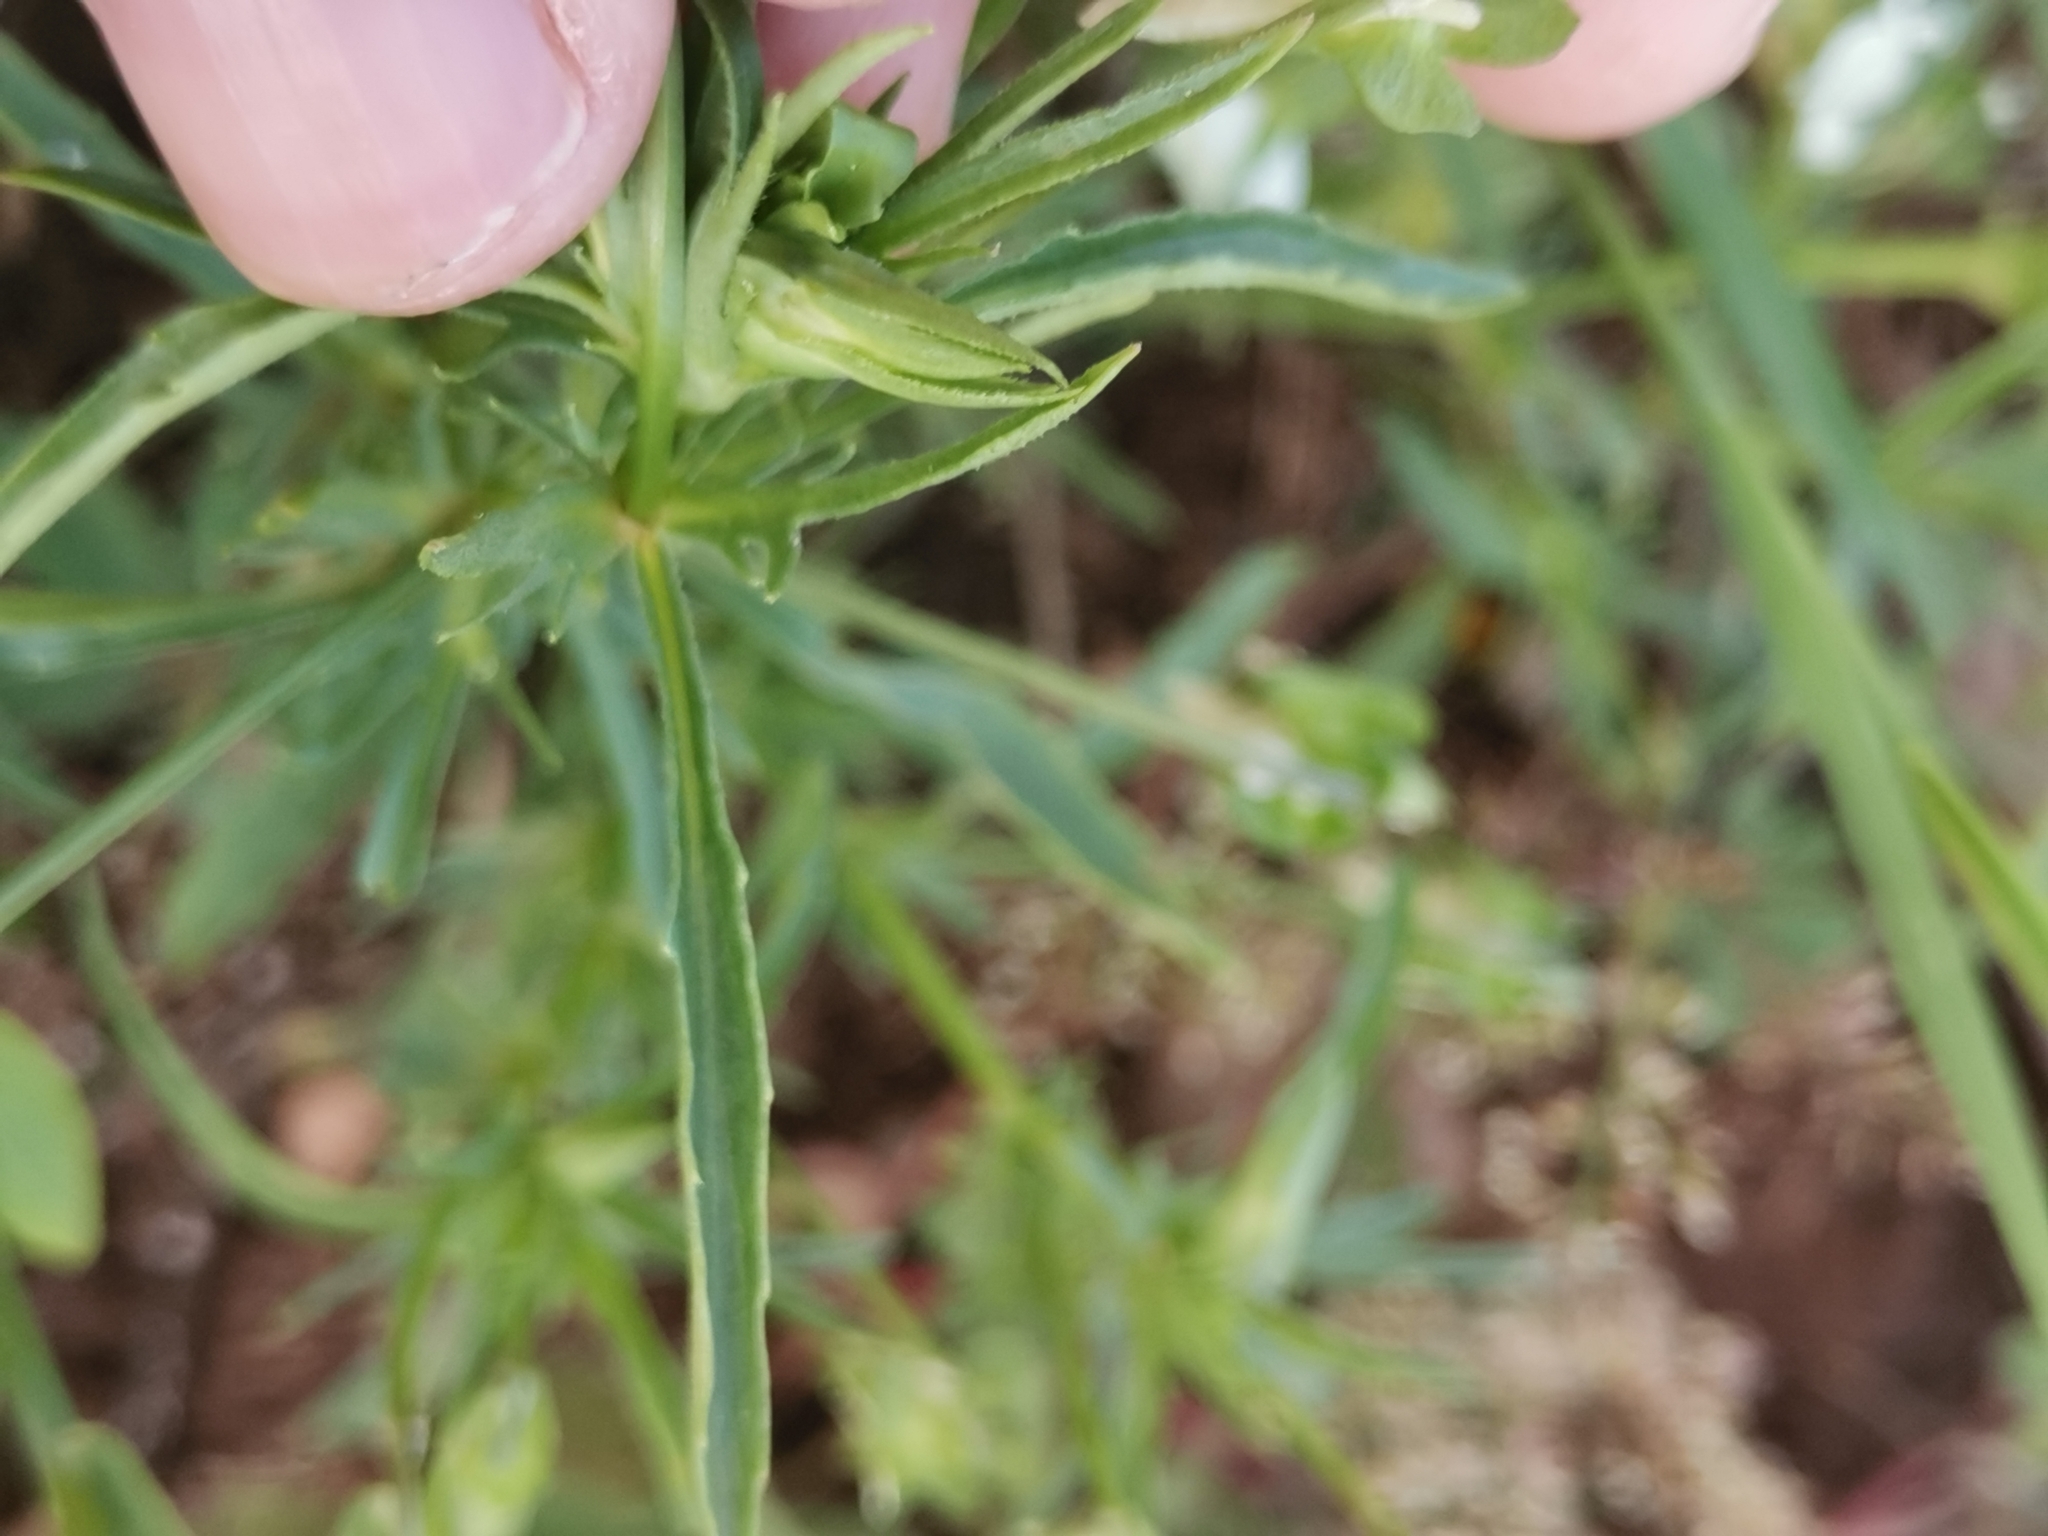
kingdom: Plantae
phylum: Tracheophyta
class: Magnoliopsida
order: Malpighiales
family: Violaceae
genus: Viola
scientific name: Viola arvensis
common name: Field pansy
